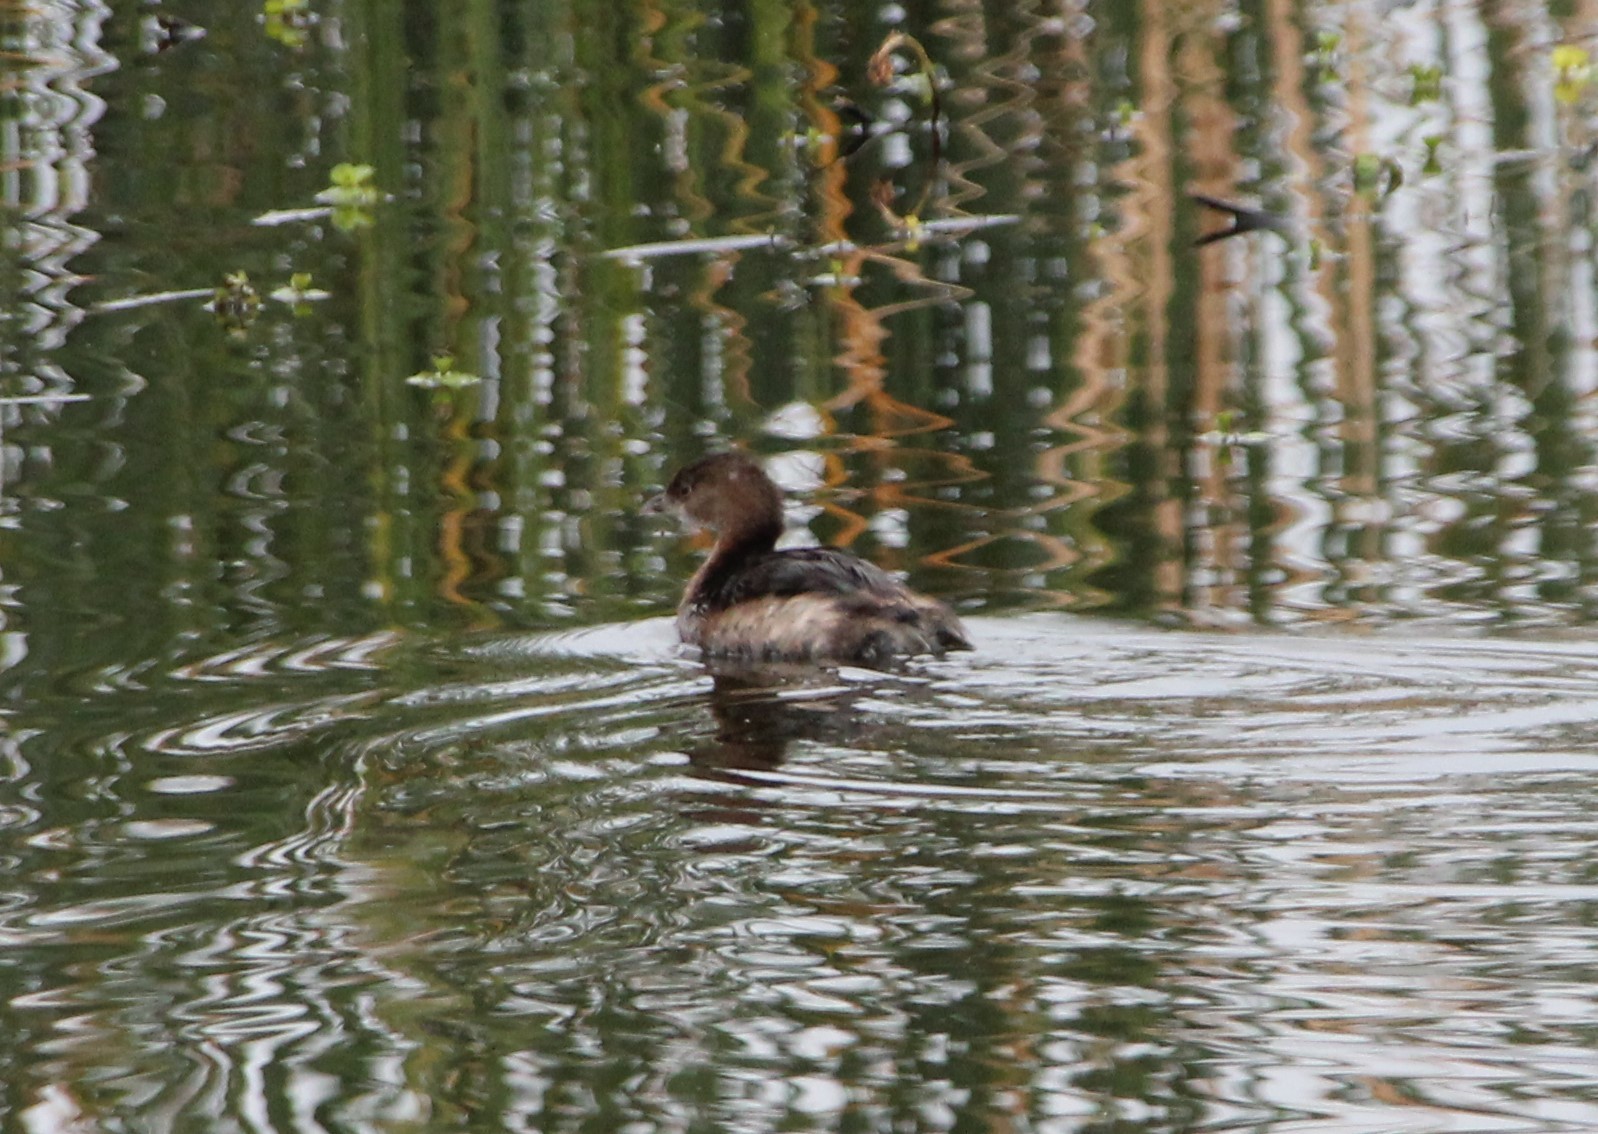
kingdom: Animalia
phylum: Chordata
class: Aves
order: Podicipediformes
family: Podicipedidae
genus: Podilymbus
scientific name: Podilymbus podiceps
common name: Pied-billed grebe
